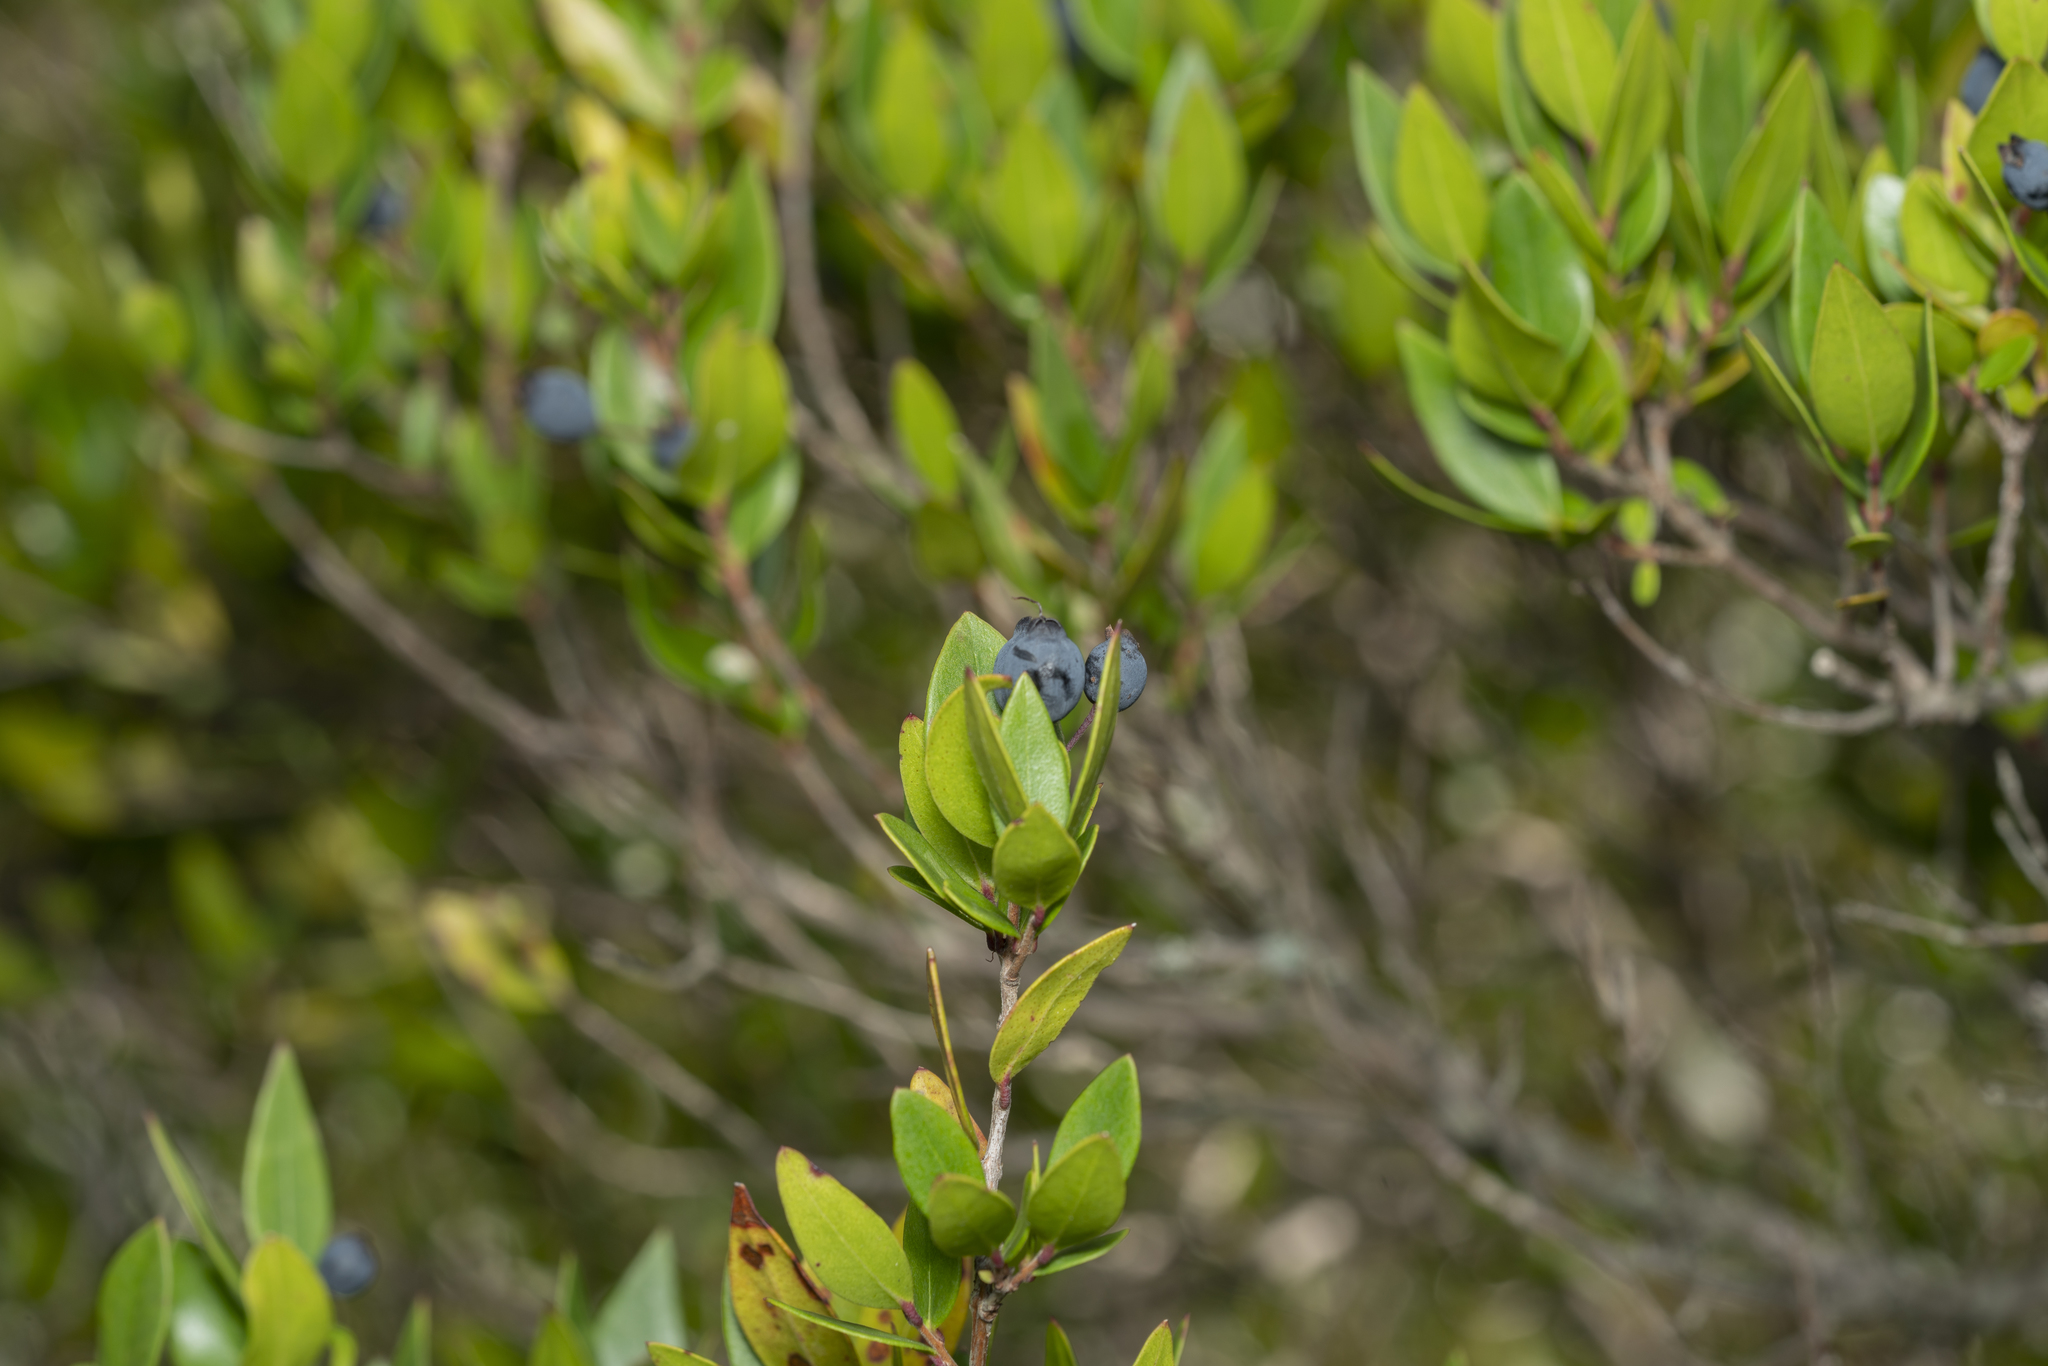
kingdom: Plantae
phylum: Tracheophyta
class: Magnoliopsida
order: Myrtales
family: Myrtaceae
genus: Myrtus
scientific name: Myrtus communis
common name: Myrtle
